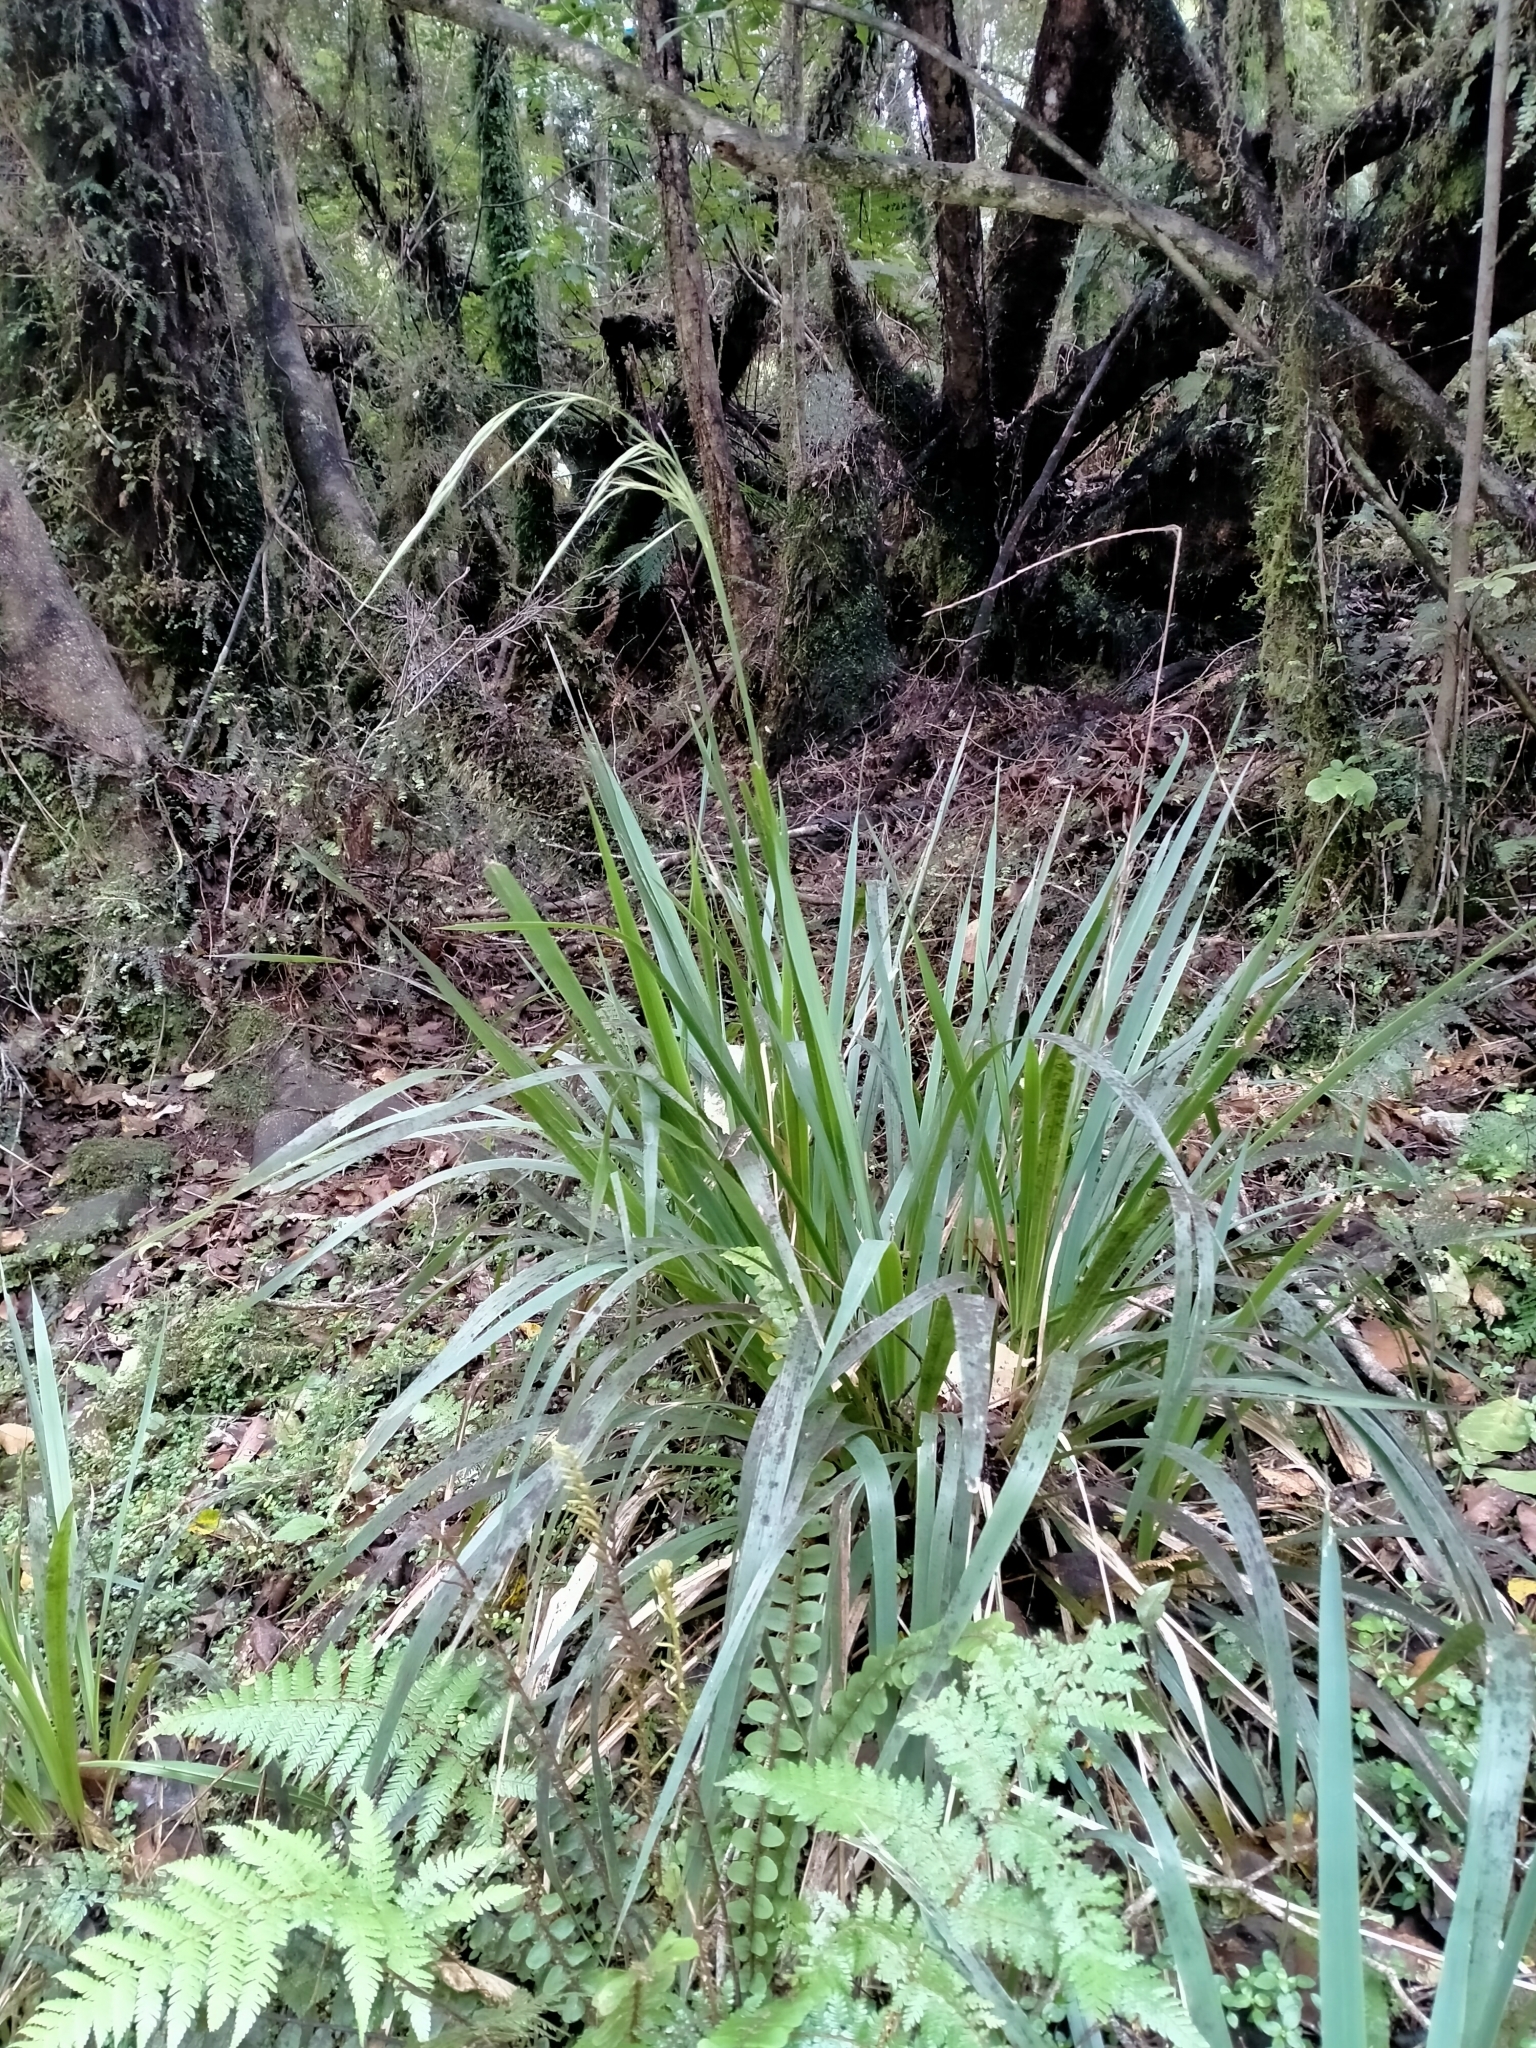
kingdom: Plantae
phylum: Tracheophyta
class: Liliopsida
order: Poales
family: Poaceae
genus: Ehrharta
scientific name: Ehrharta diplax
